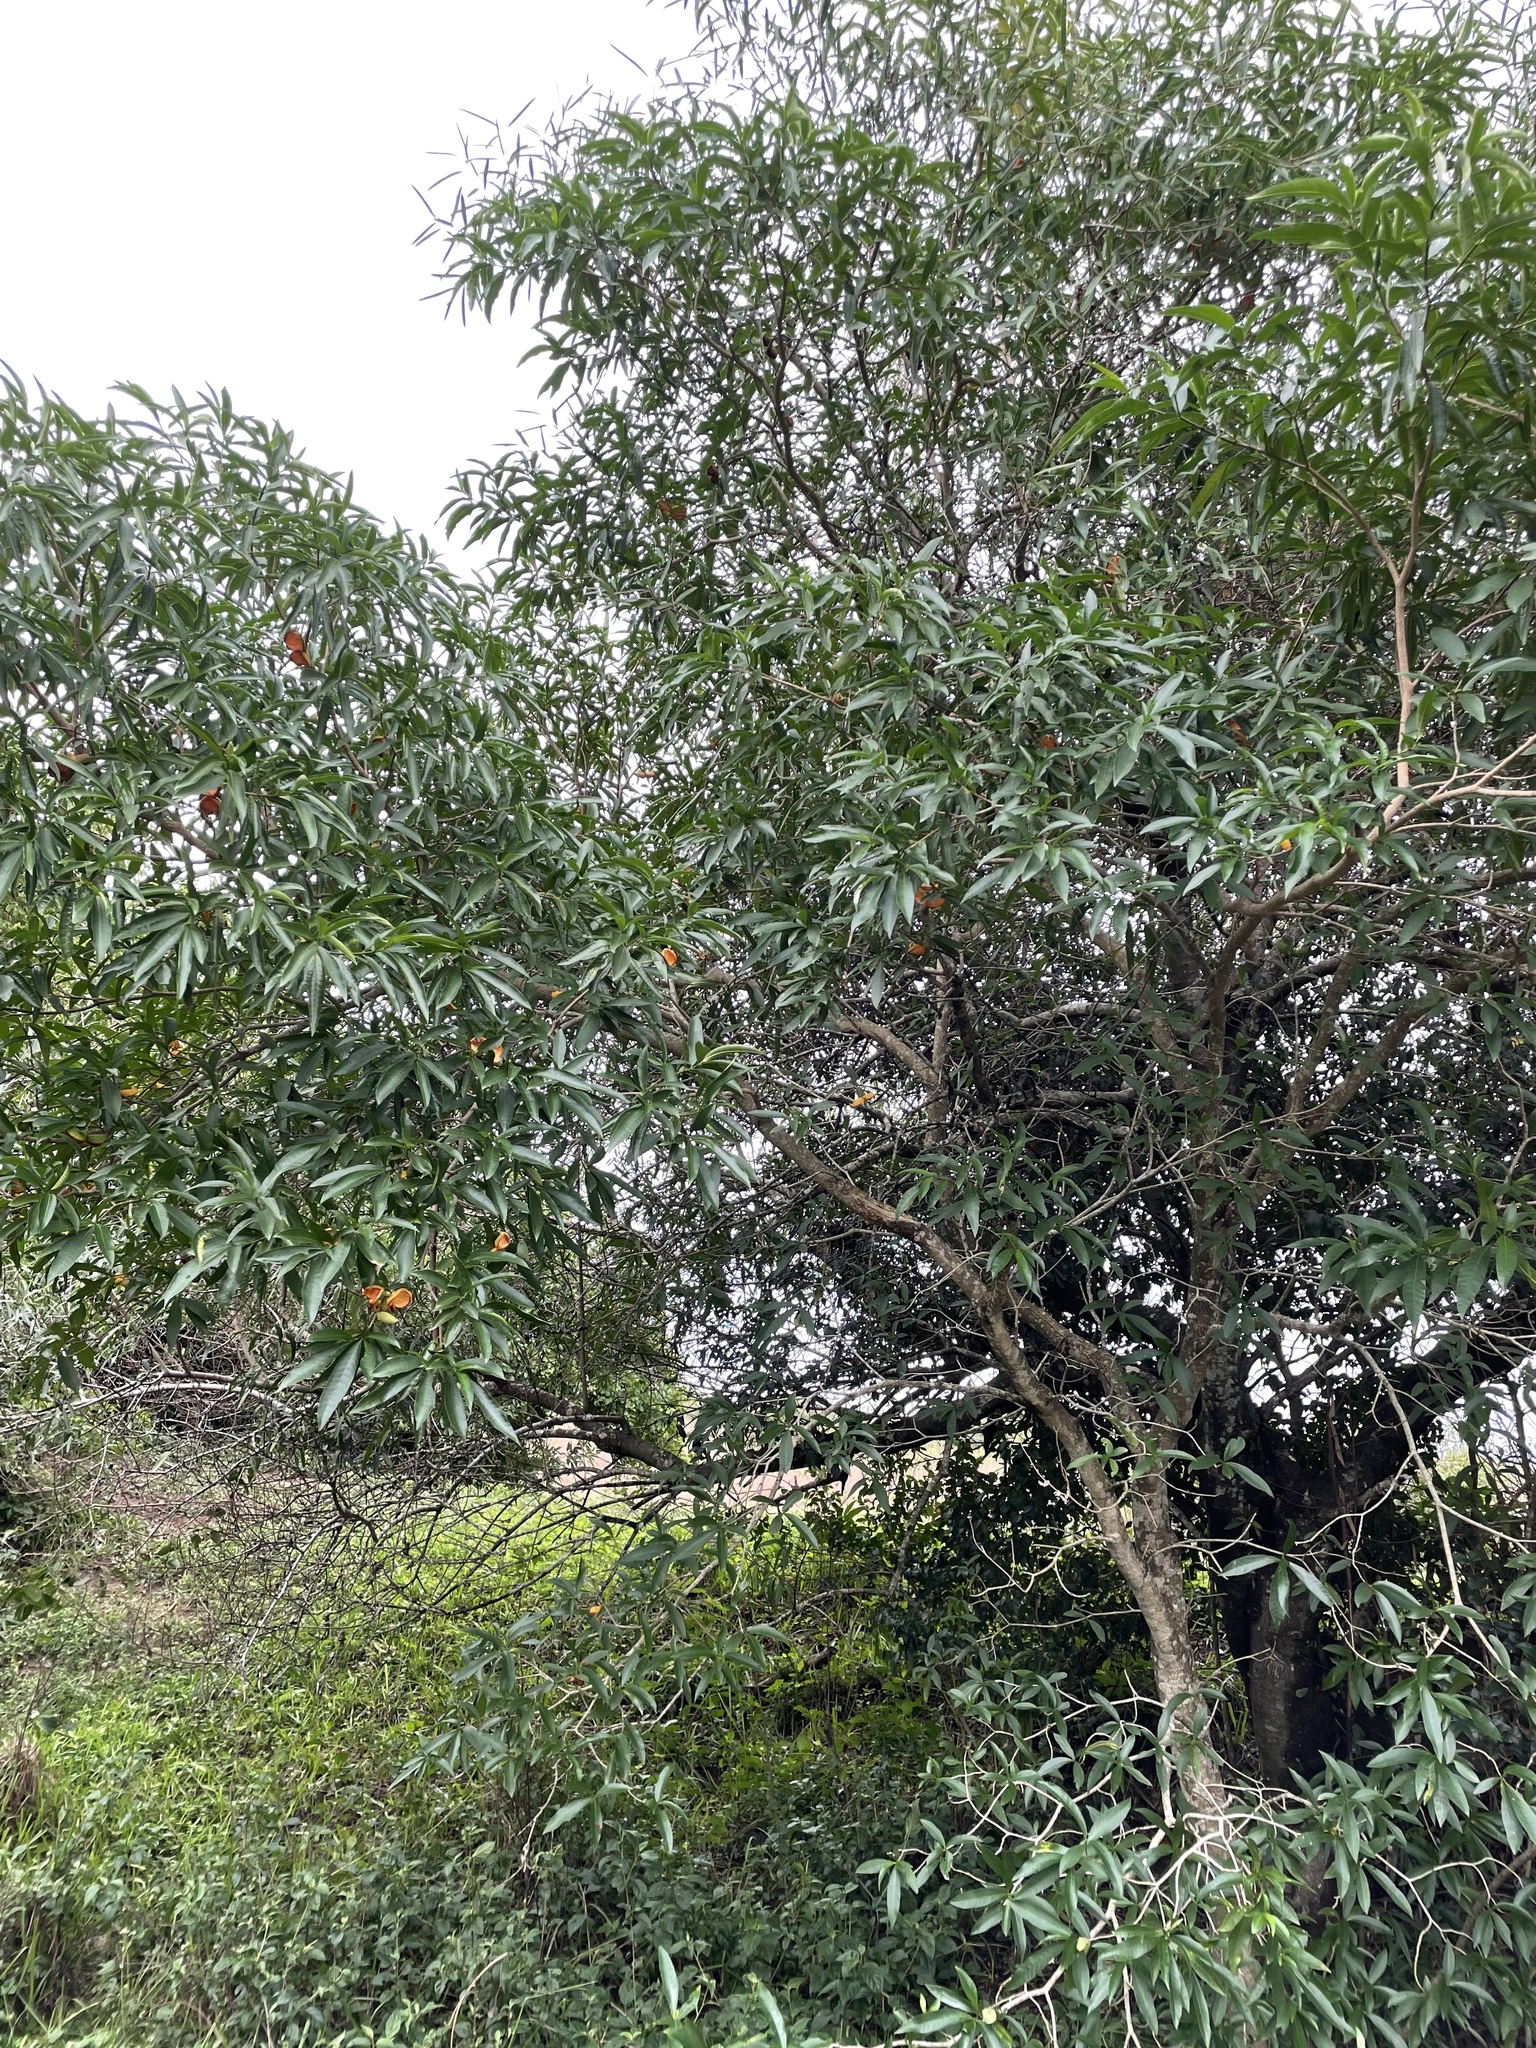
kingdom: Plantae
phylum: Tracheophyta
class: Magnoliopsida
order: Gentianales
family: Apocynaceae
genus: Tabernaemontana
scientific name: Tabernaemontana catharinensis
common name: Pinwheel-flower
